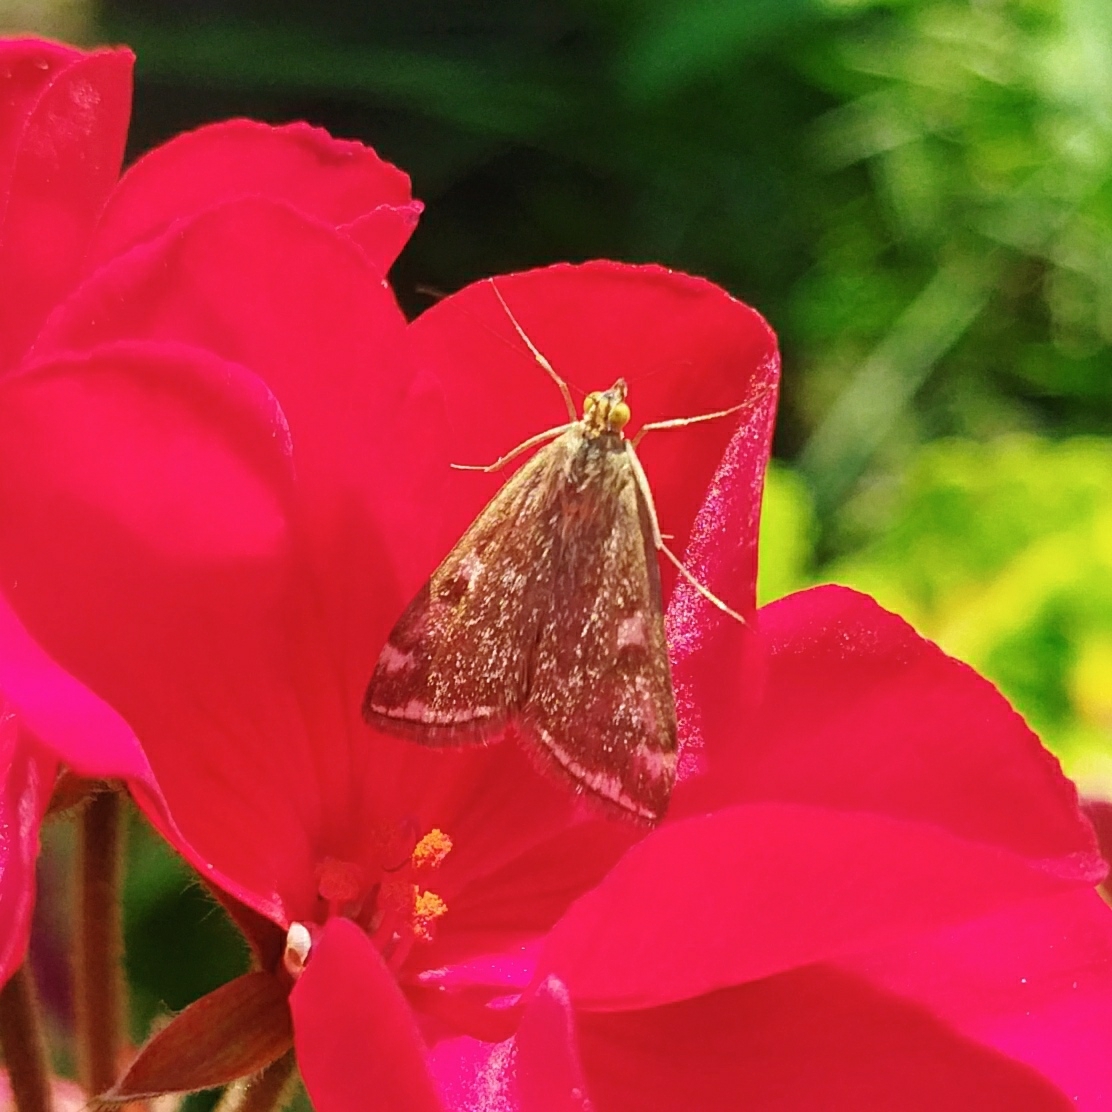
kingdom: Animalia
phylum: Arthropoda
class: Insecta
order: Lepidoptera
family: Crambidae
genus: Loxostege
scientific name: Loxostege sticticalis
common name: Crambid moth
